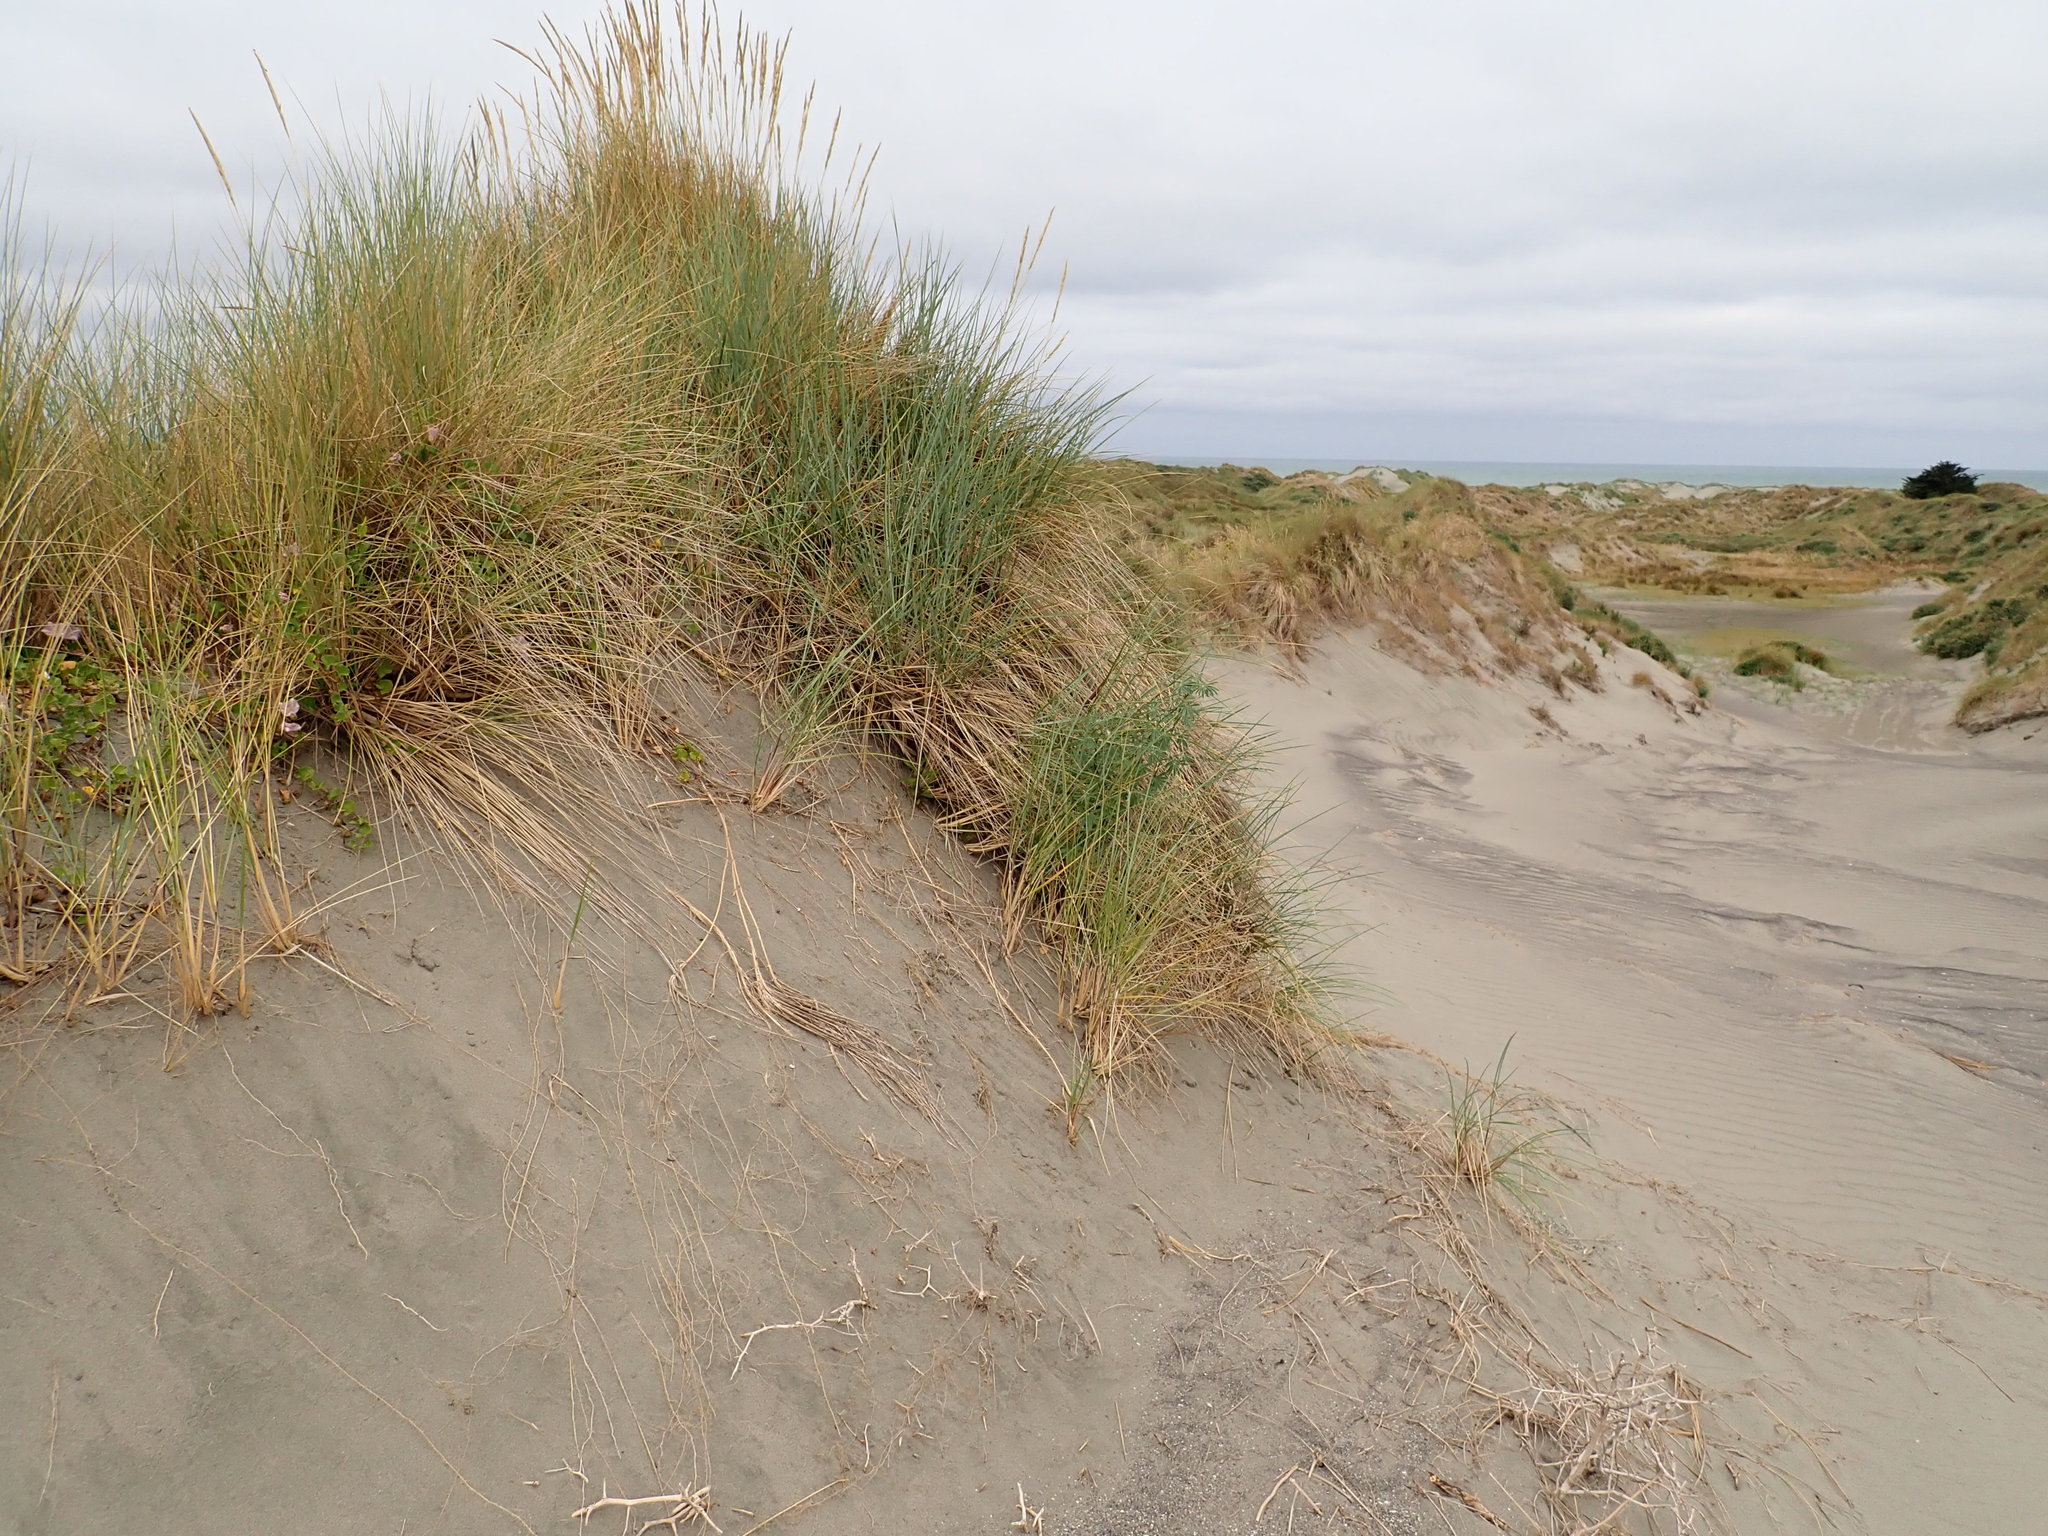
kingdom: Plantae
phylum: Tracheophyta
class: Liliopsida
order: Poales
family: Poaceae
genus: Calamagrostis
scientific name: Calamagrostis arenaria
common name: European beachgrass
